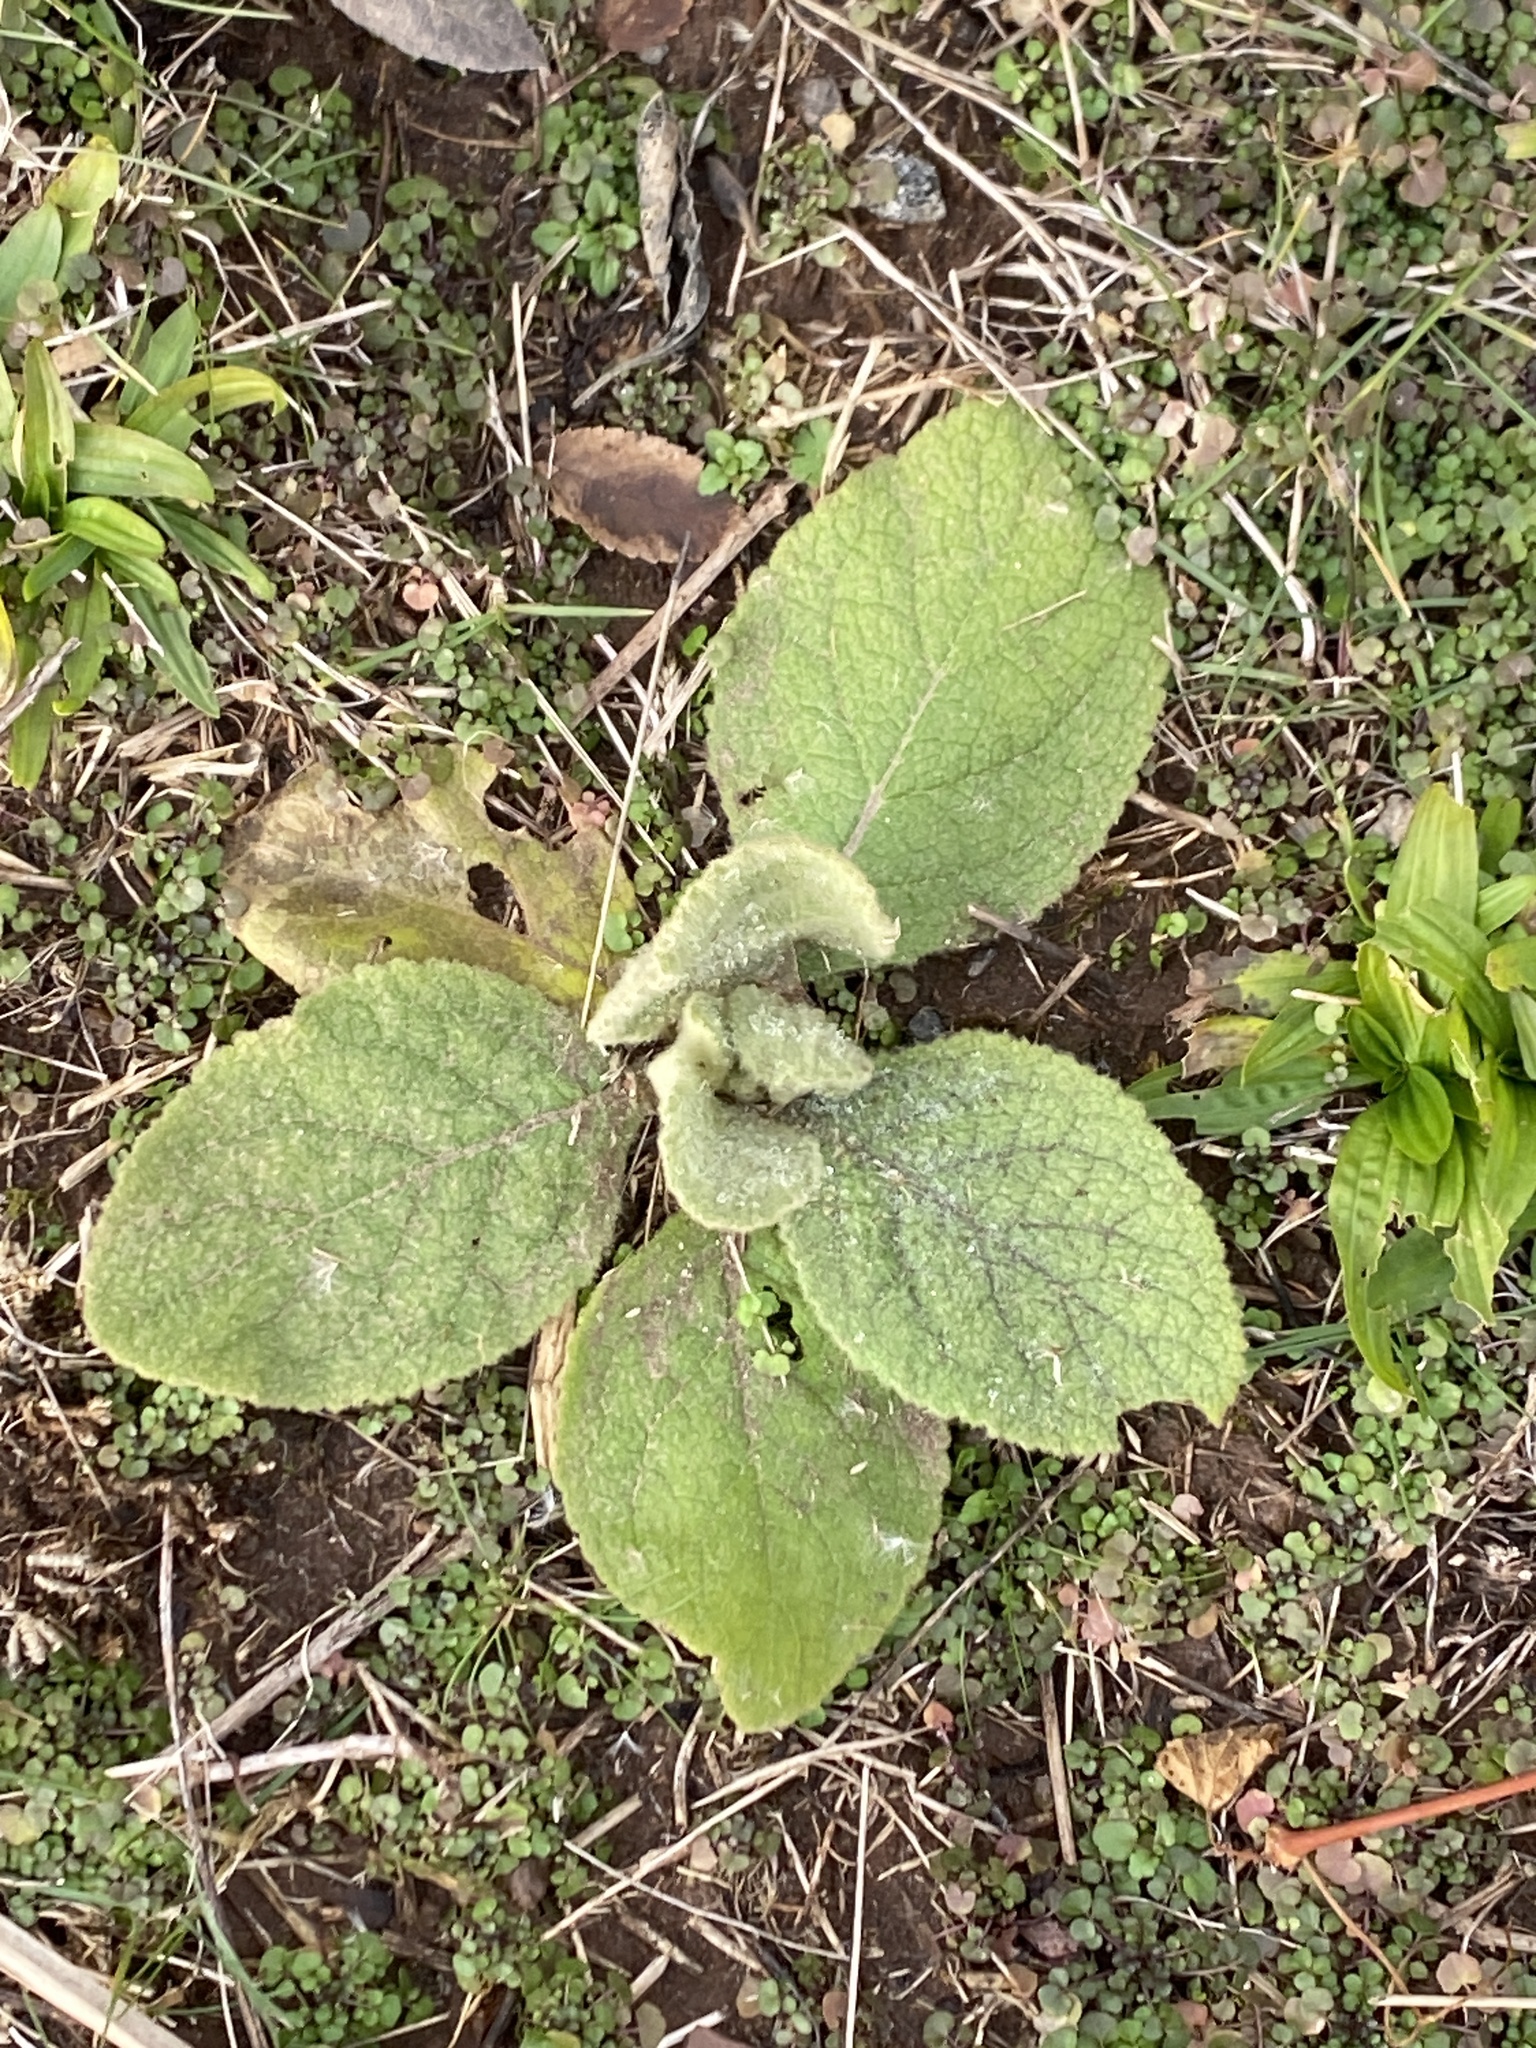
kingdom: Plantae
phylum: Tracheophyta
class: Magnoliopsida
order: Lamiales
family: Scrophulariaceae
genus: Verbascum
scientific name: Verbascum thapsus
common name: Common mullein
